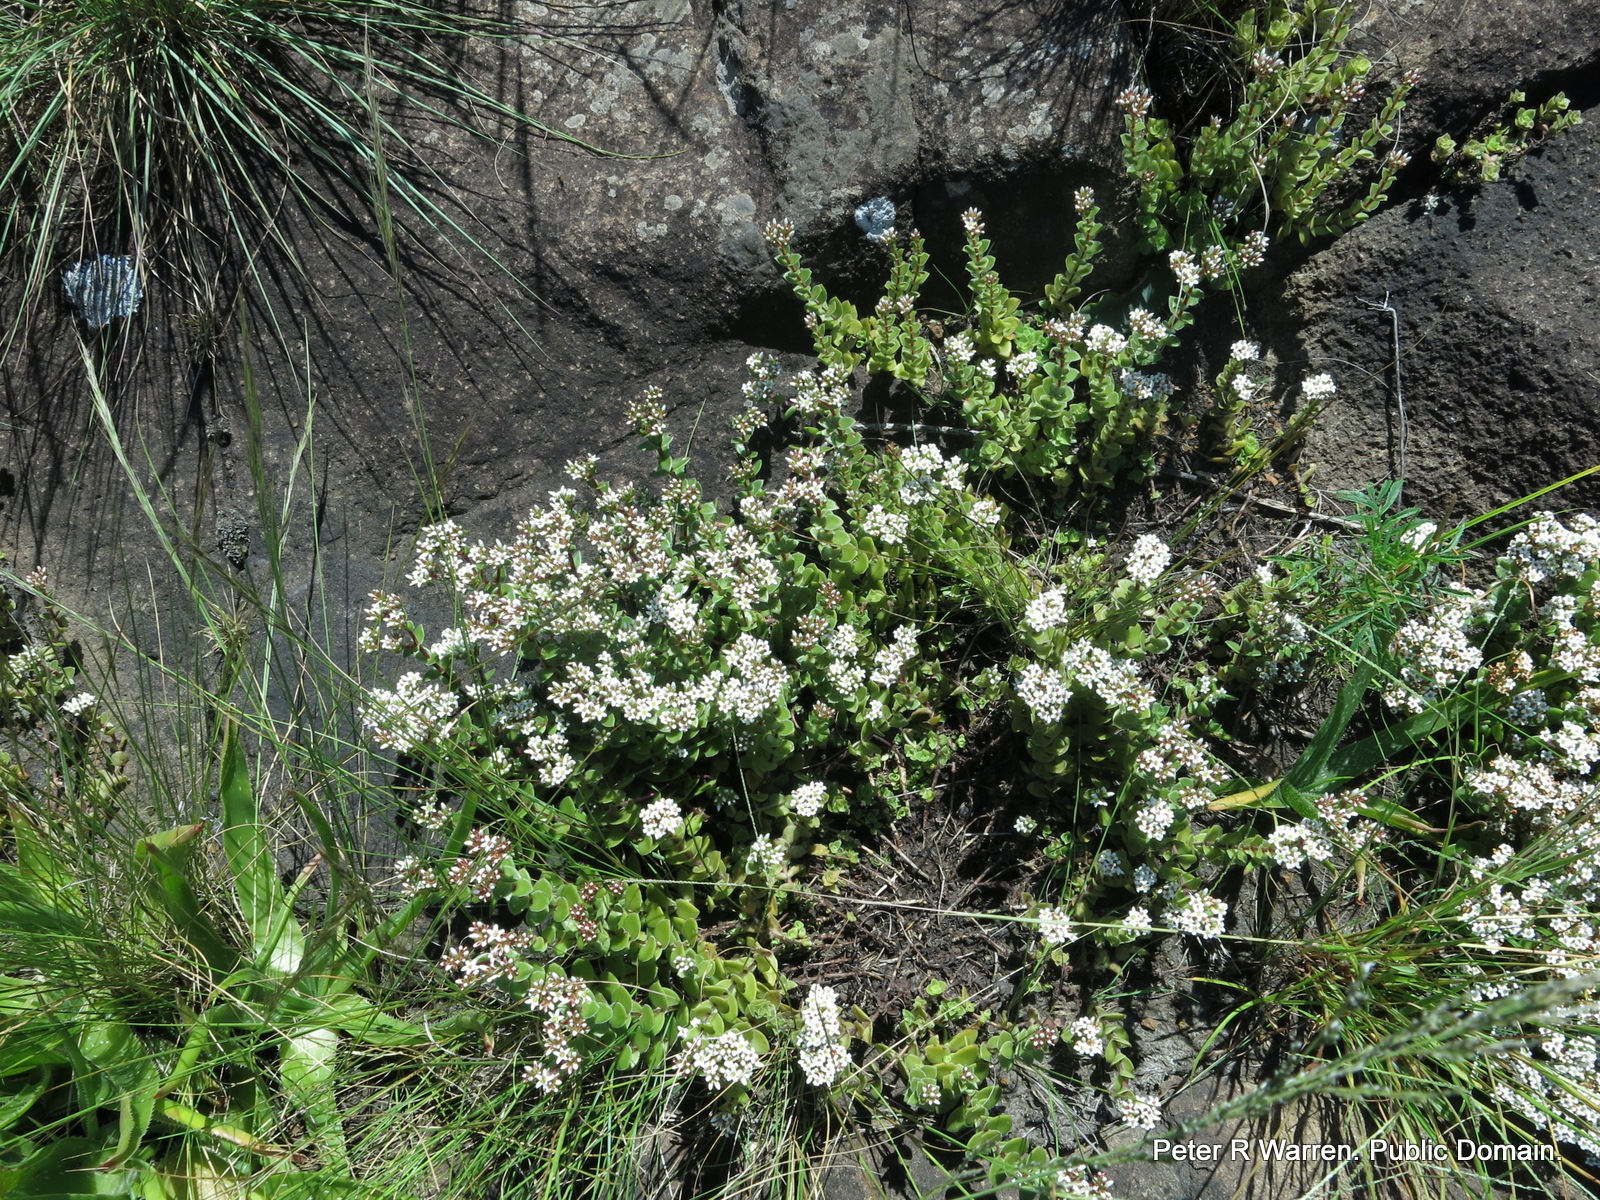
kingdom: Plantae
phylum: Tracheophyta
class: Magnoliopsida
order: Saxifragales
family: Crassulaceae
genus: Crassula
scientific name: Crassula obovata
